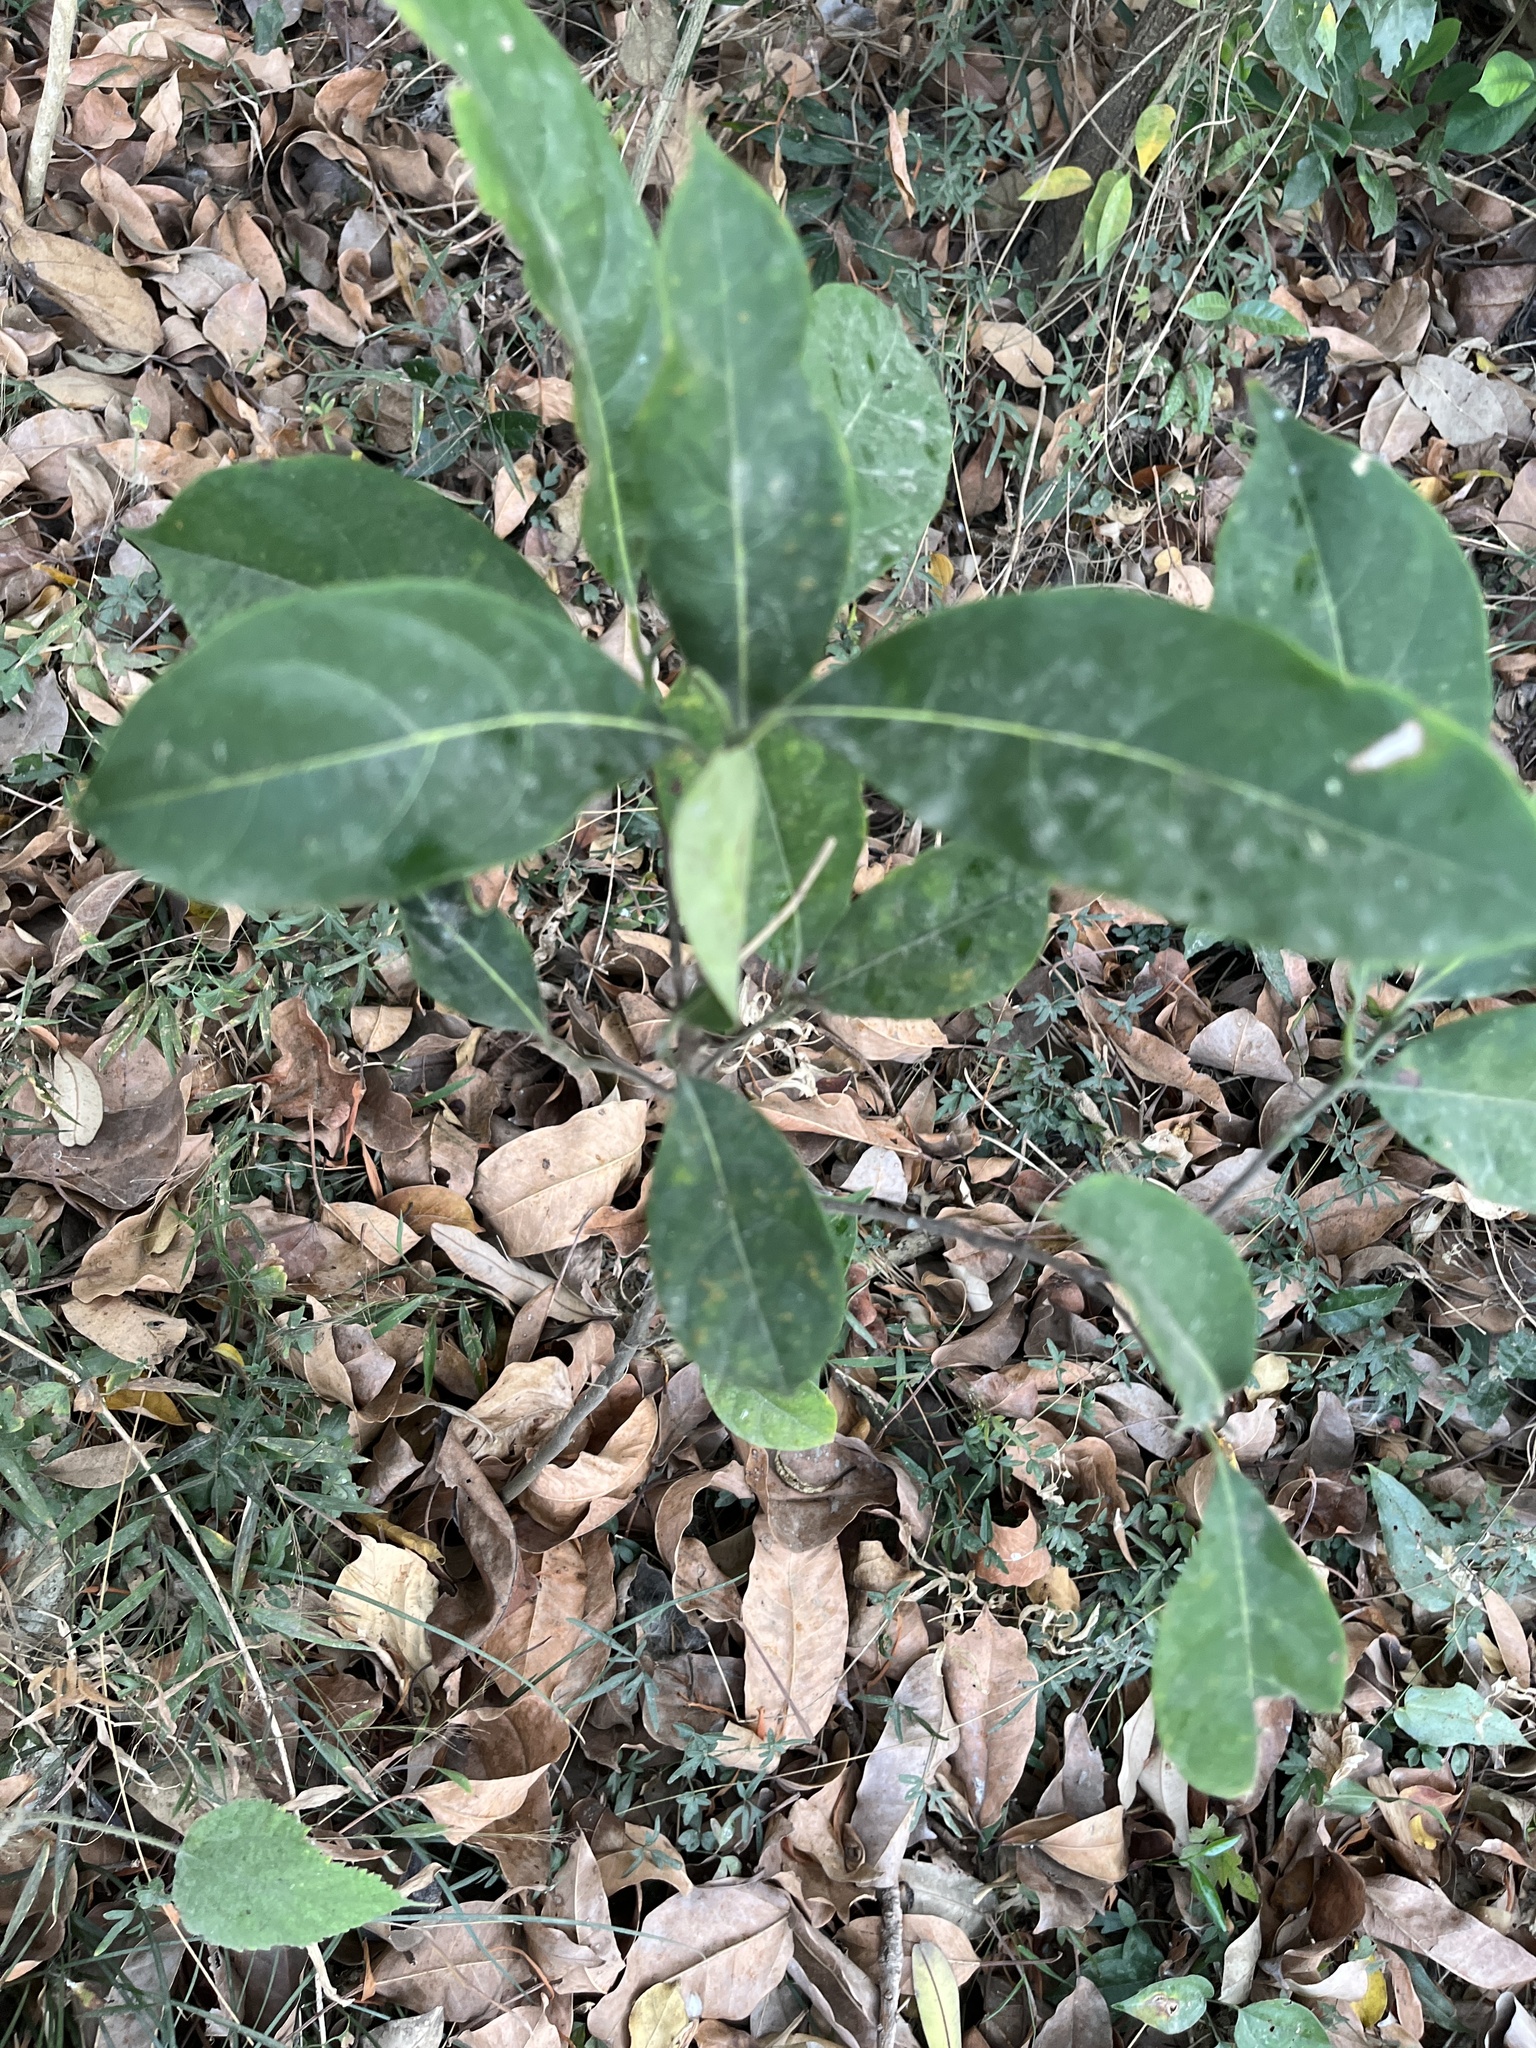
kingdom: Plantae
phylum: Tracheophyta
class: Magnoliopsida
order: Solanales
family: Solanaceae
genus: Solanum
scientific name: Solanum diphyllum
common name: Twoleaf nightshade
